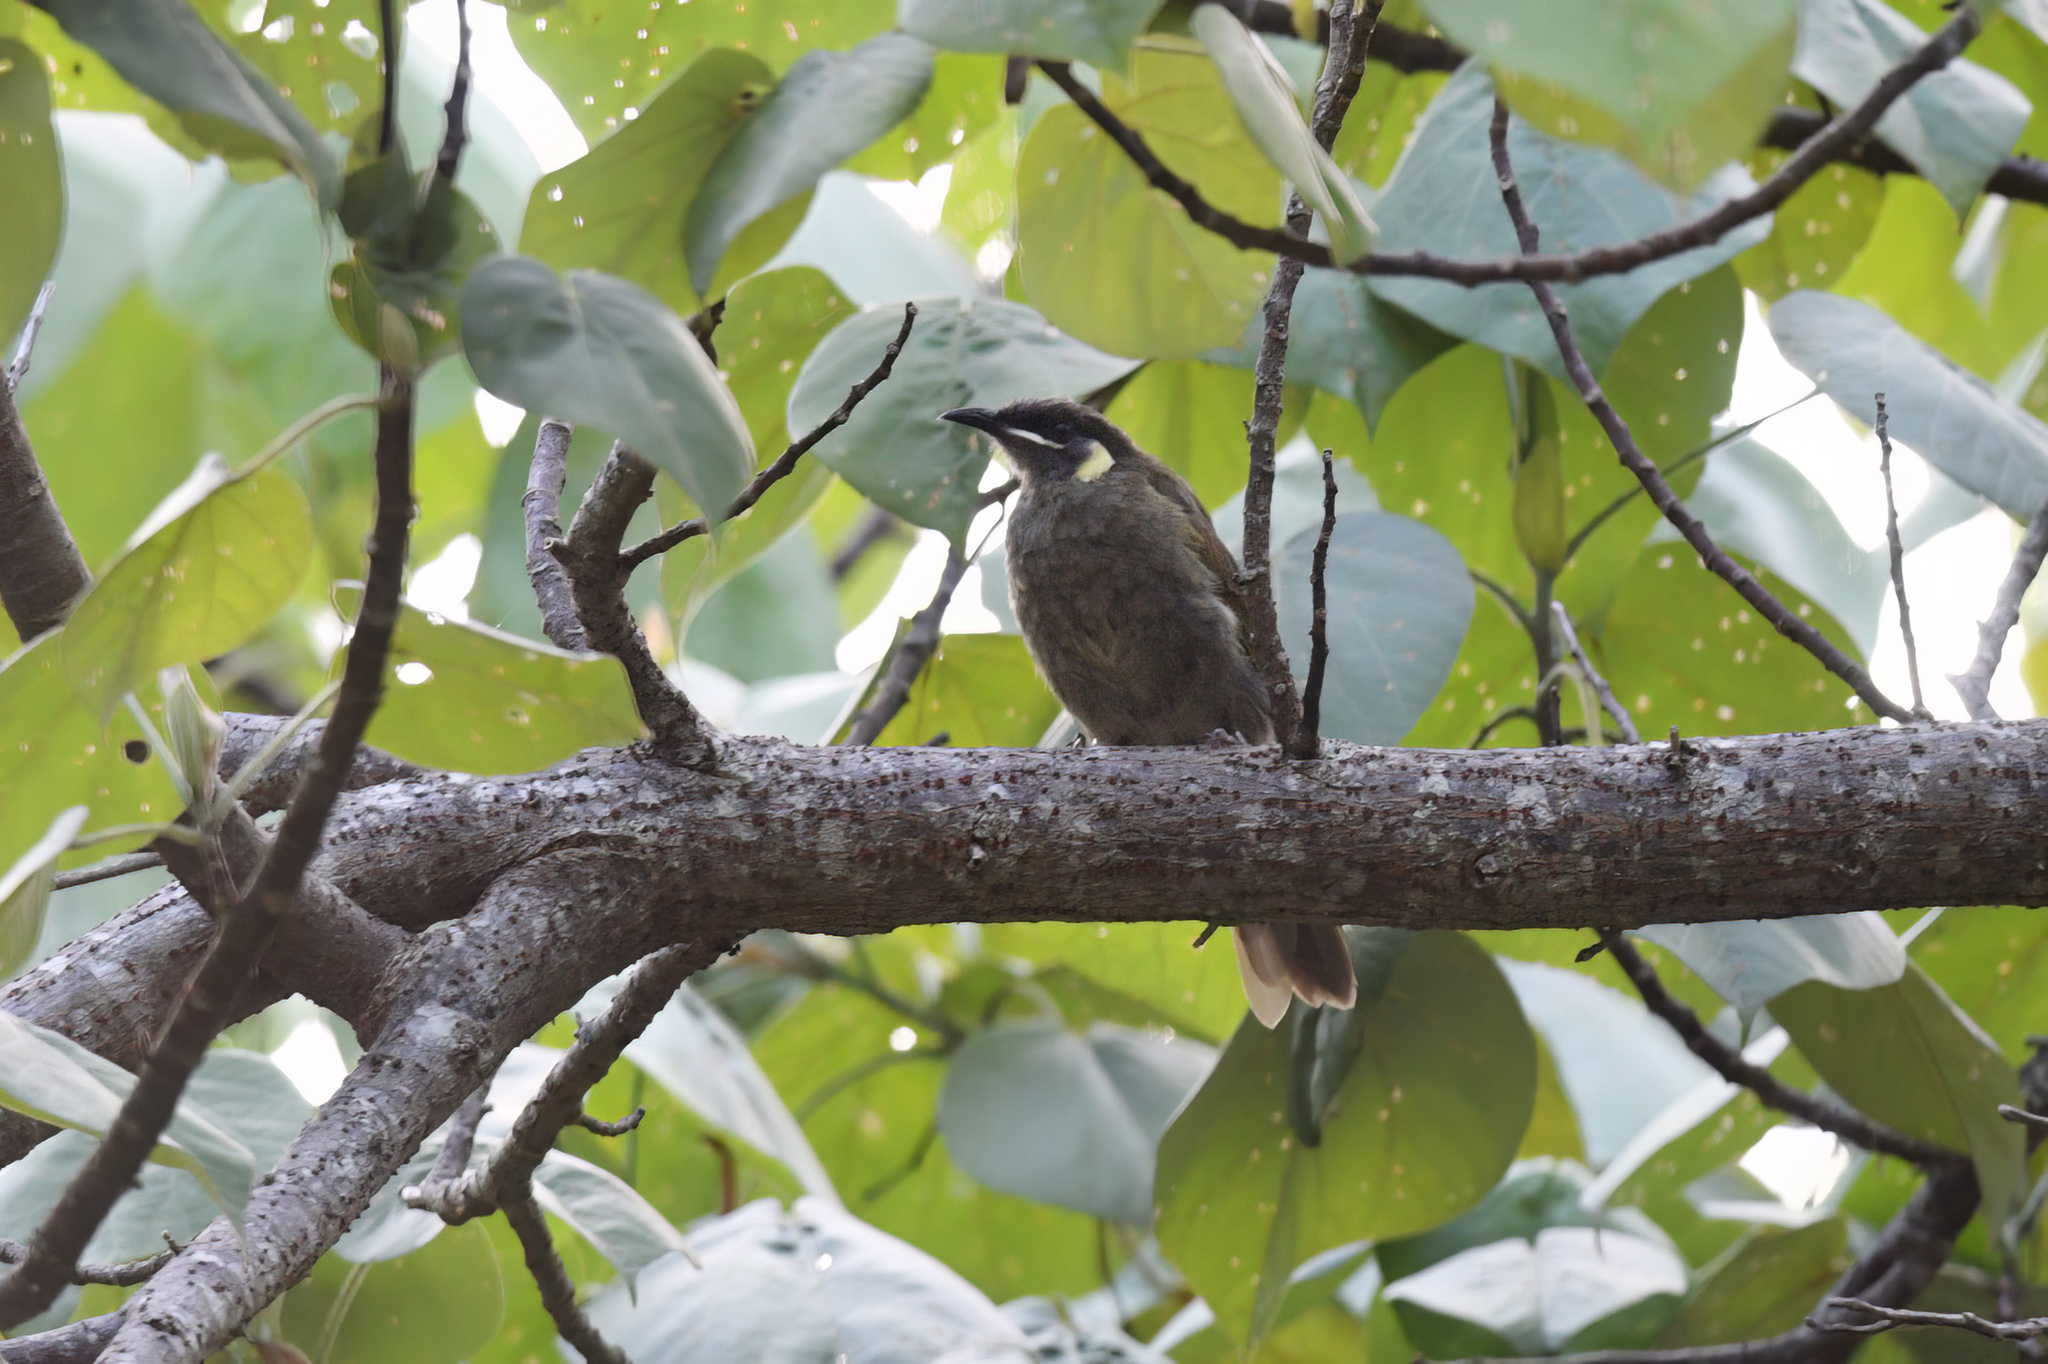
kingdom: Animalia
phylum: Chordata
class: Aves
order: Passeriformes
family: Meliphagidae
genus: Meliphaga
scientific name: Meliphaga lewinii
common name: Lewin's honeyeater
